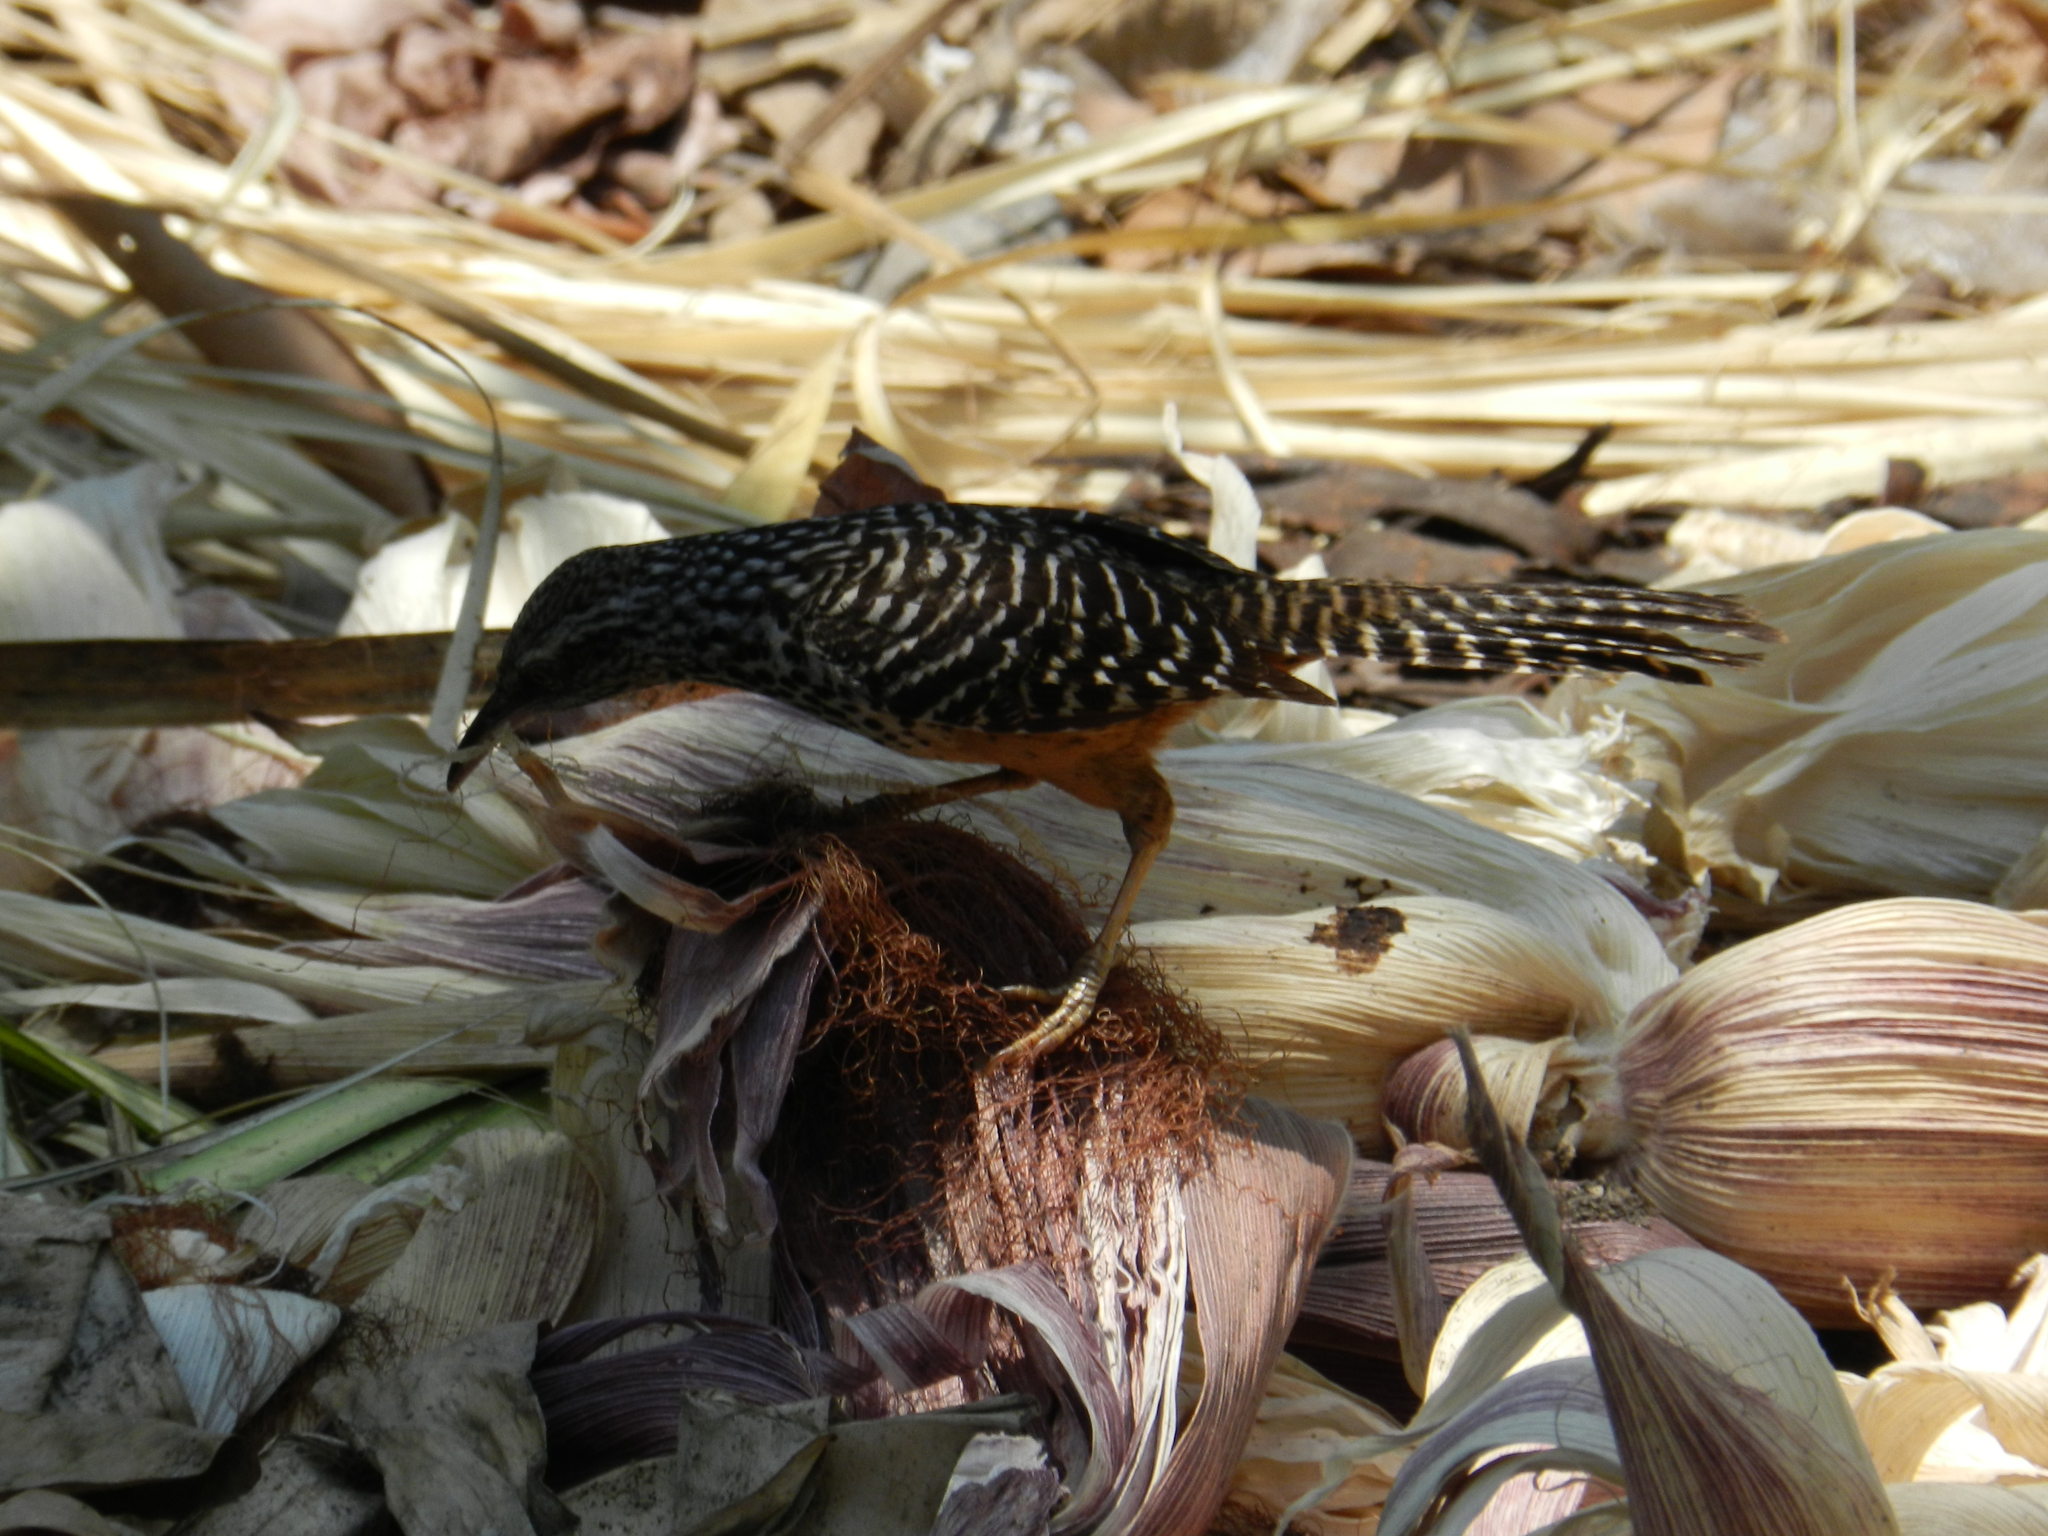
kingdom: Animalia
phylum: Chordata
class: Aves
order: Passeriformes
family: Troglodytidae
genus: Campylorhynchus
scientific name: Campylorhynchus zonatus
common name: Band-backed wren
